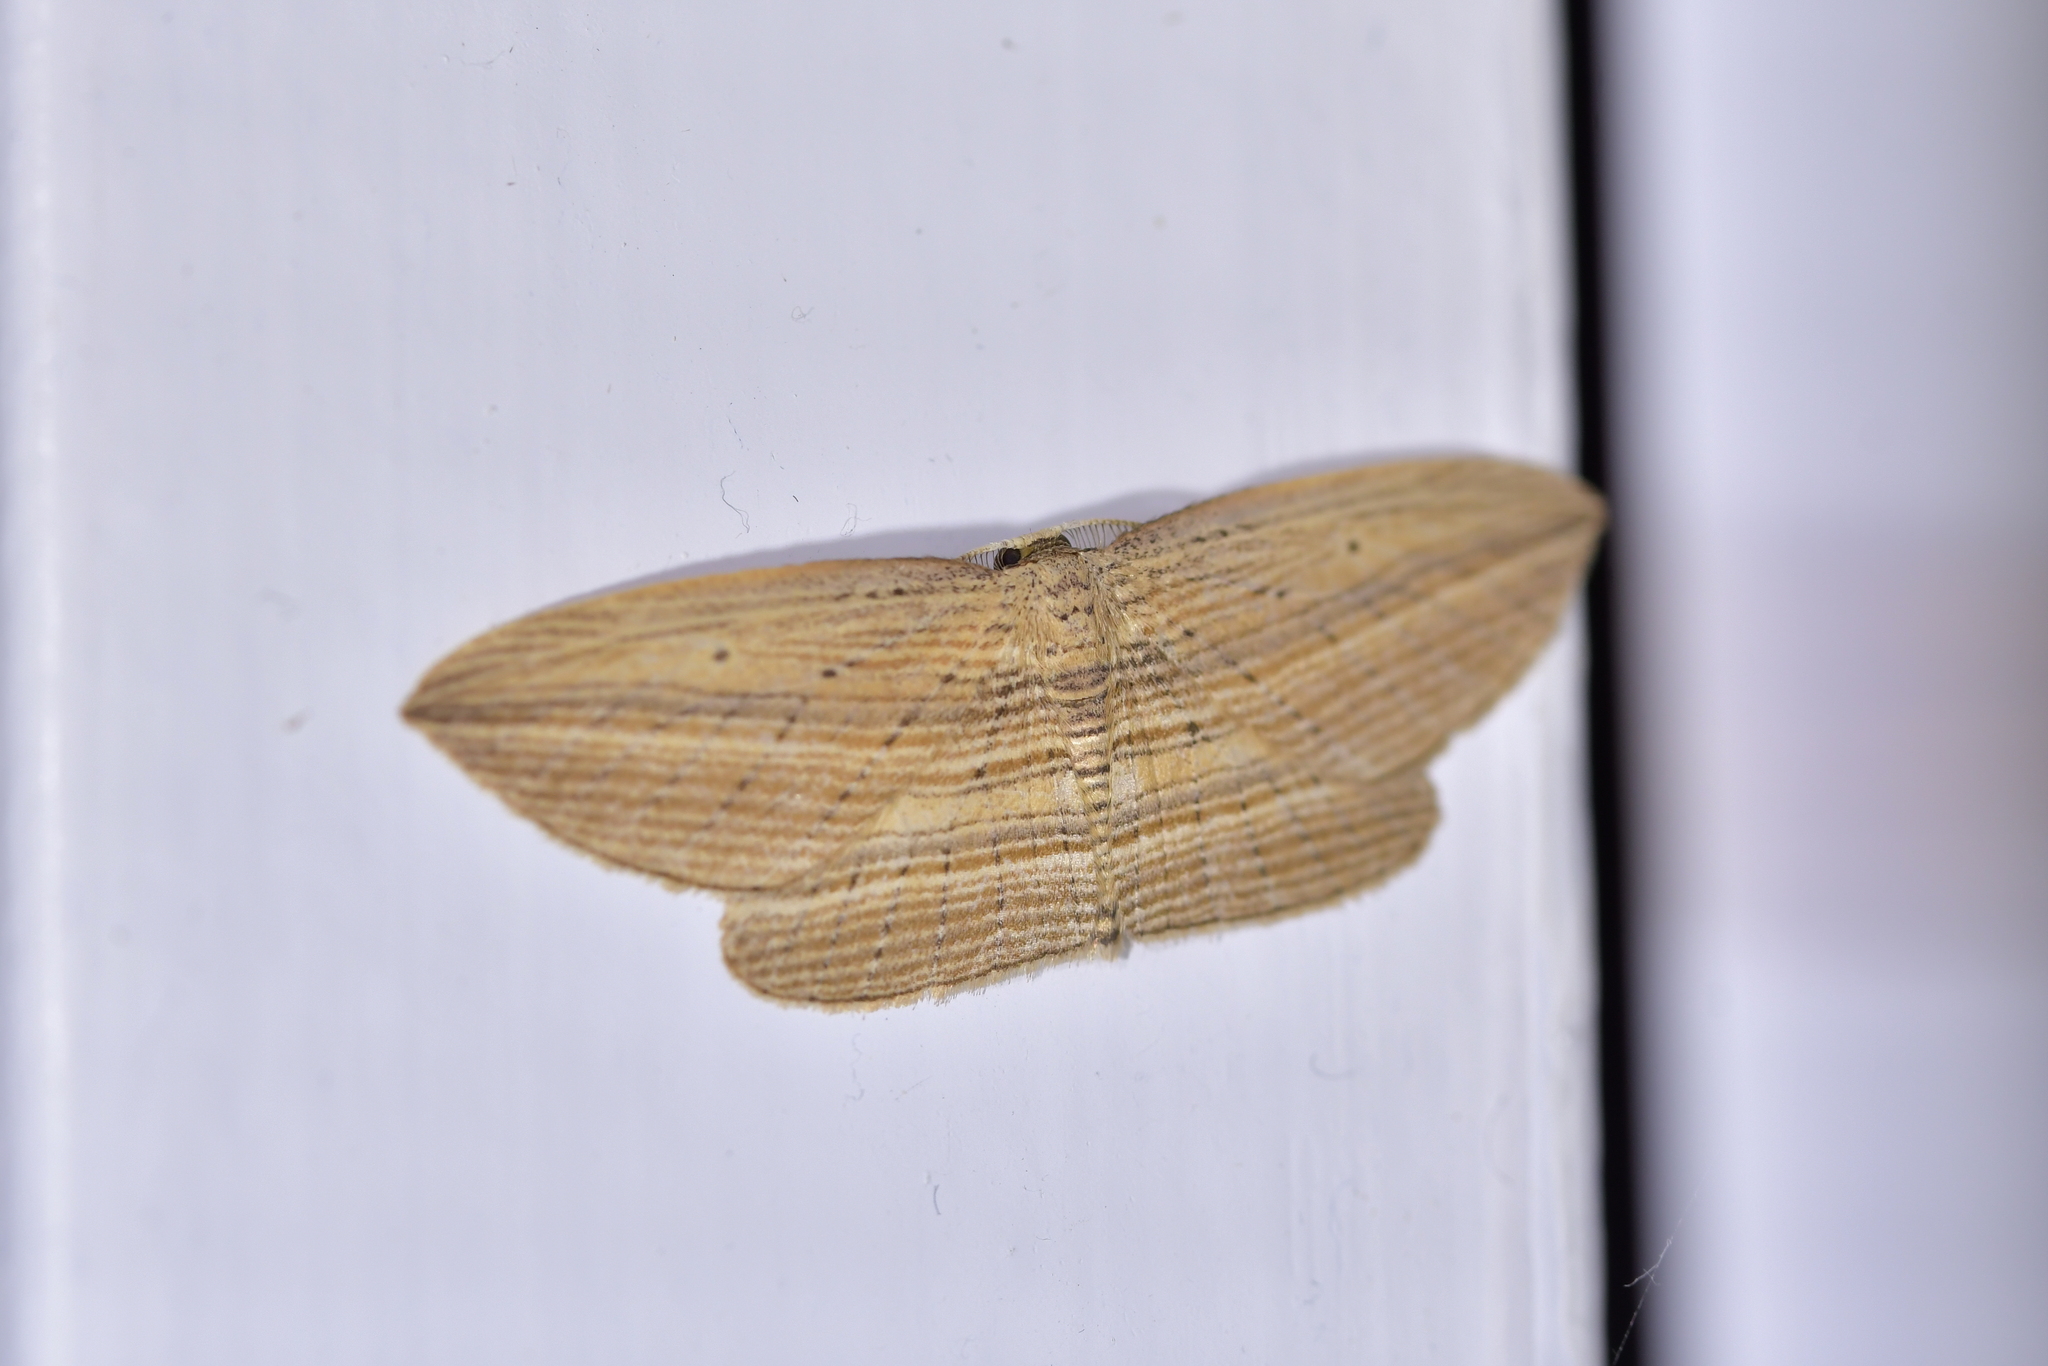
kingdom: Animalia
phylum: Arthropoda
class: Insecta
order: Lepidoptera
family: Geometridae
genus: Epiphryne
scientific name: Epiphryne verriculata
